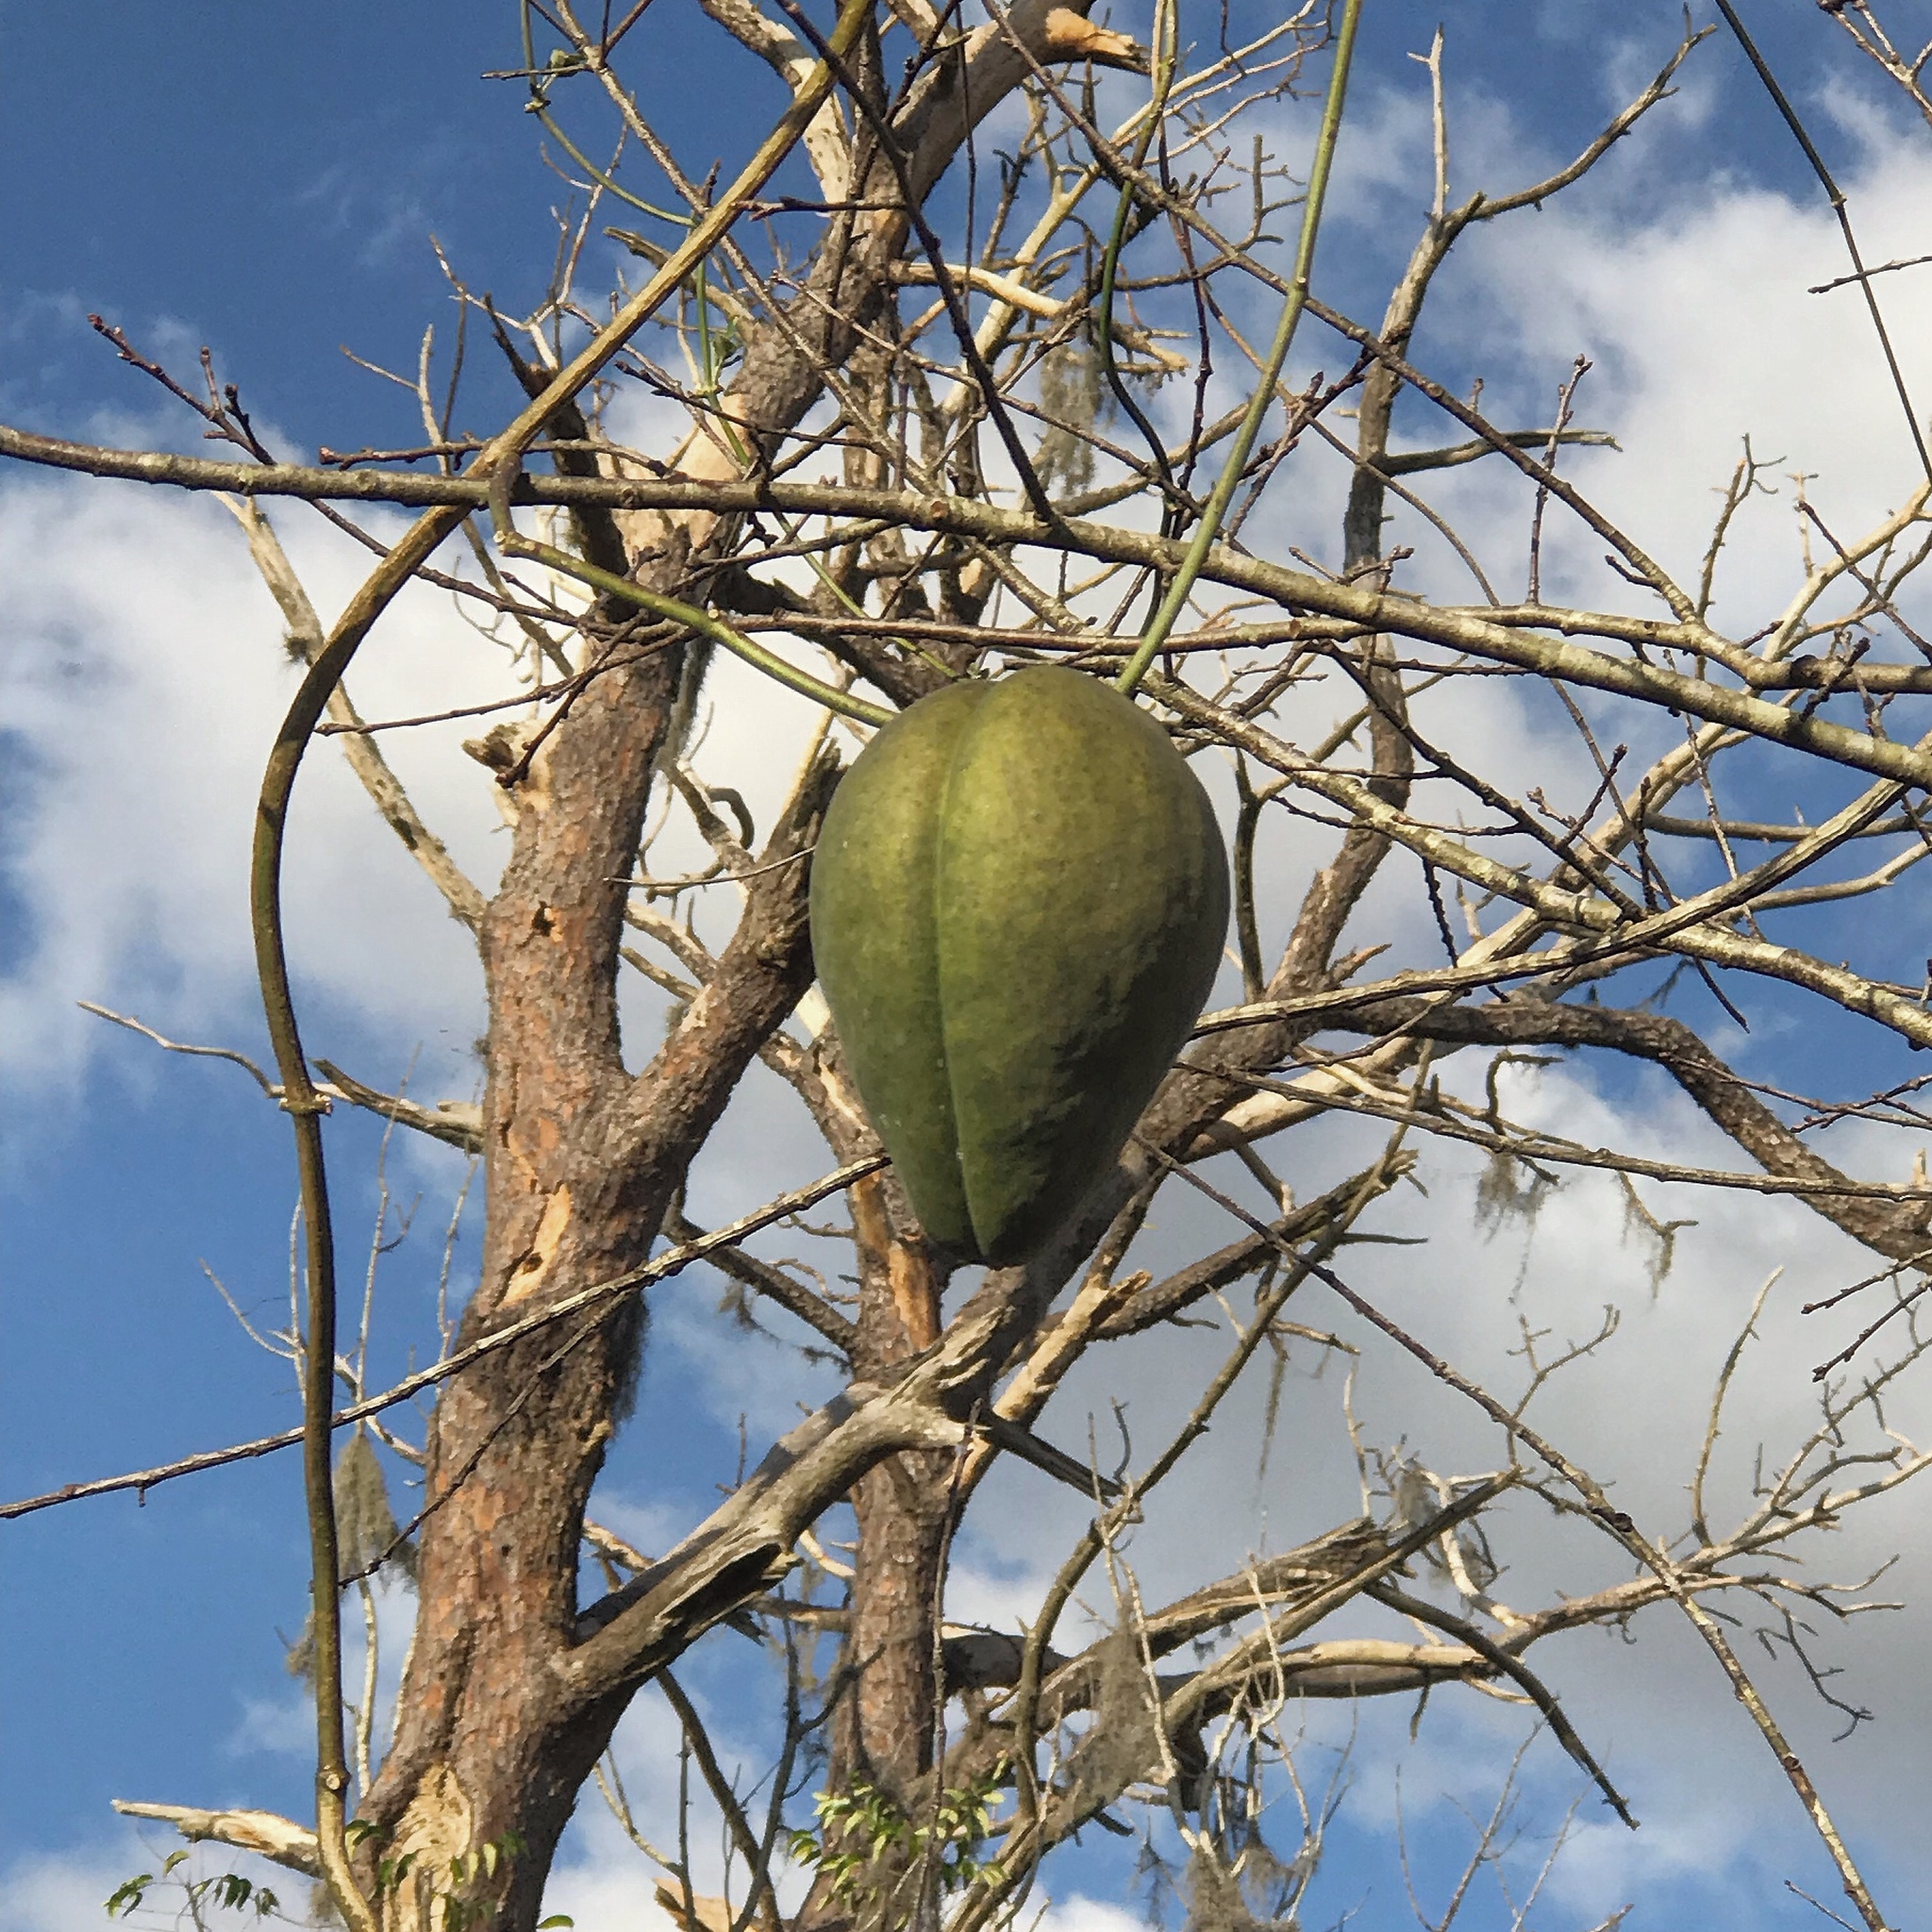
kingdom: Plantae
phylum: Tracheophyta
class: Magnoliopsida
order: Gentianales
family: Apocynaceae
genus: Araujia
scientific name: Araujia odorata
